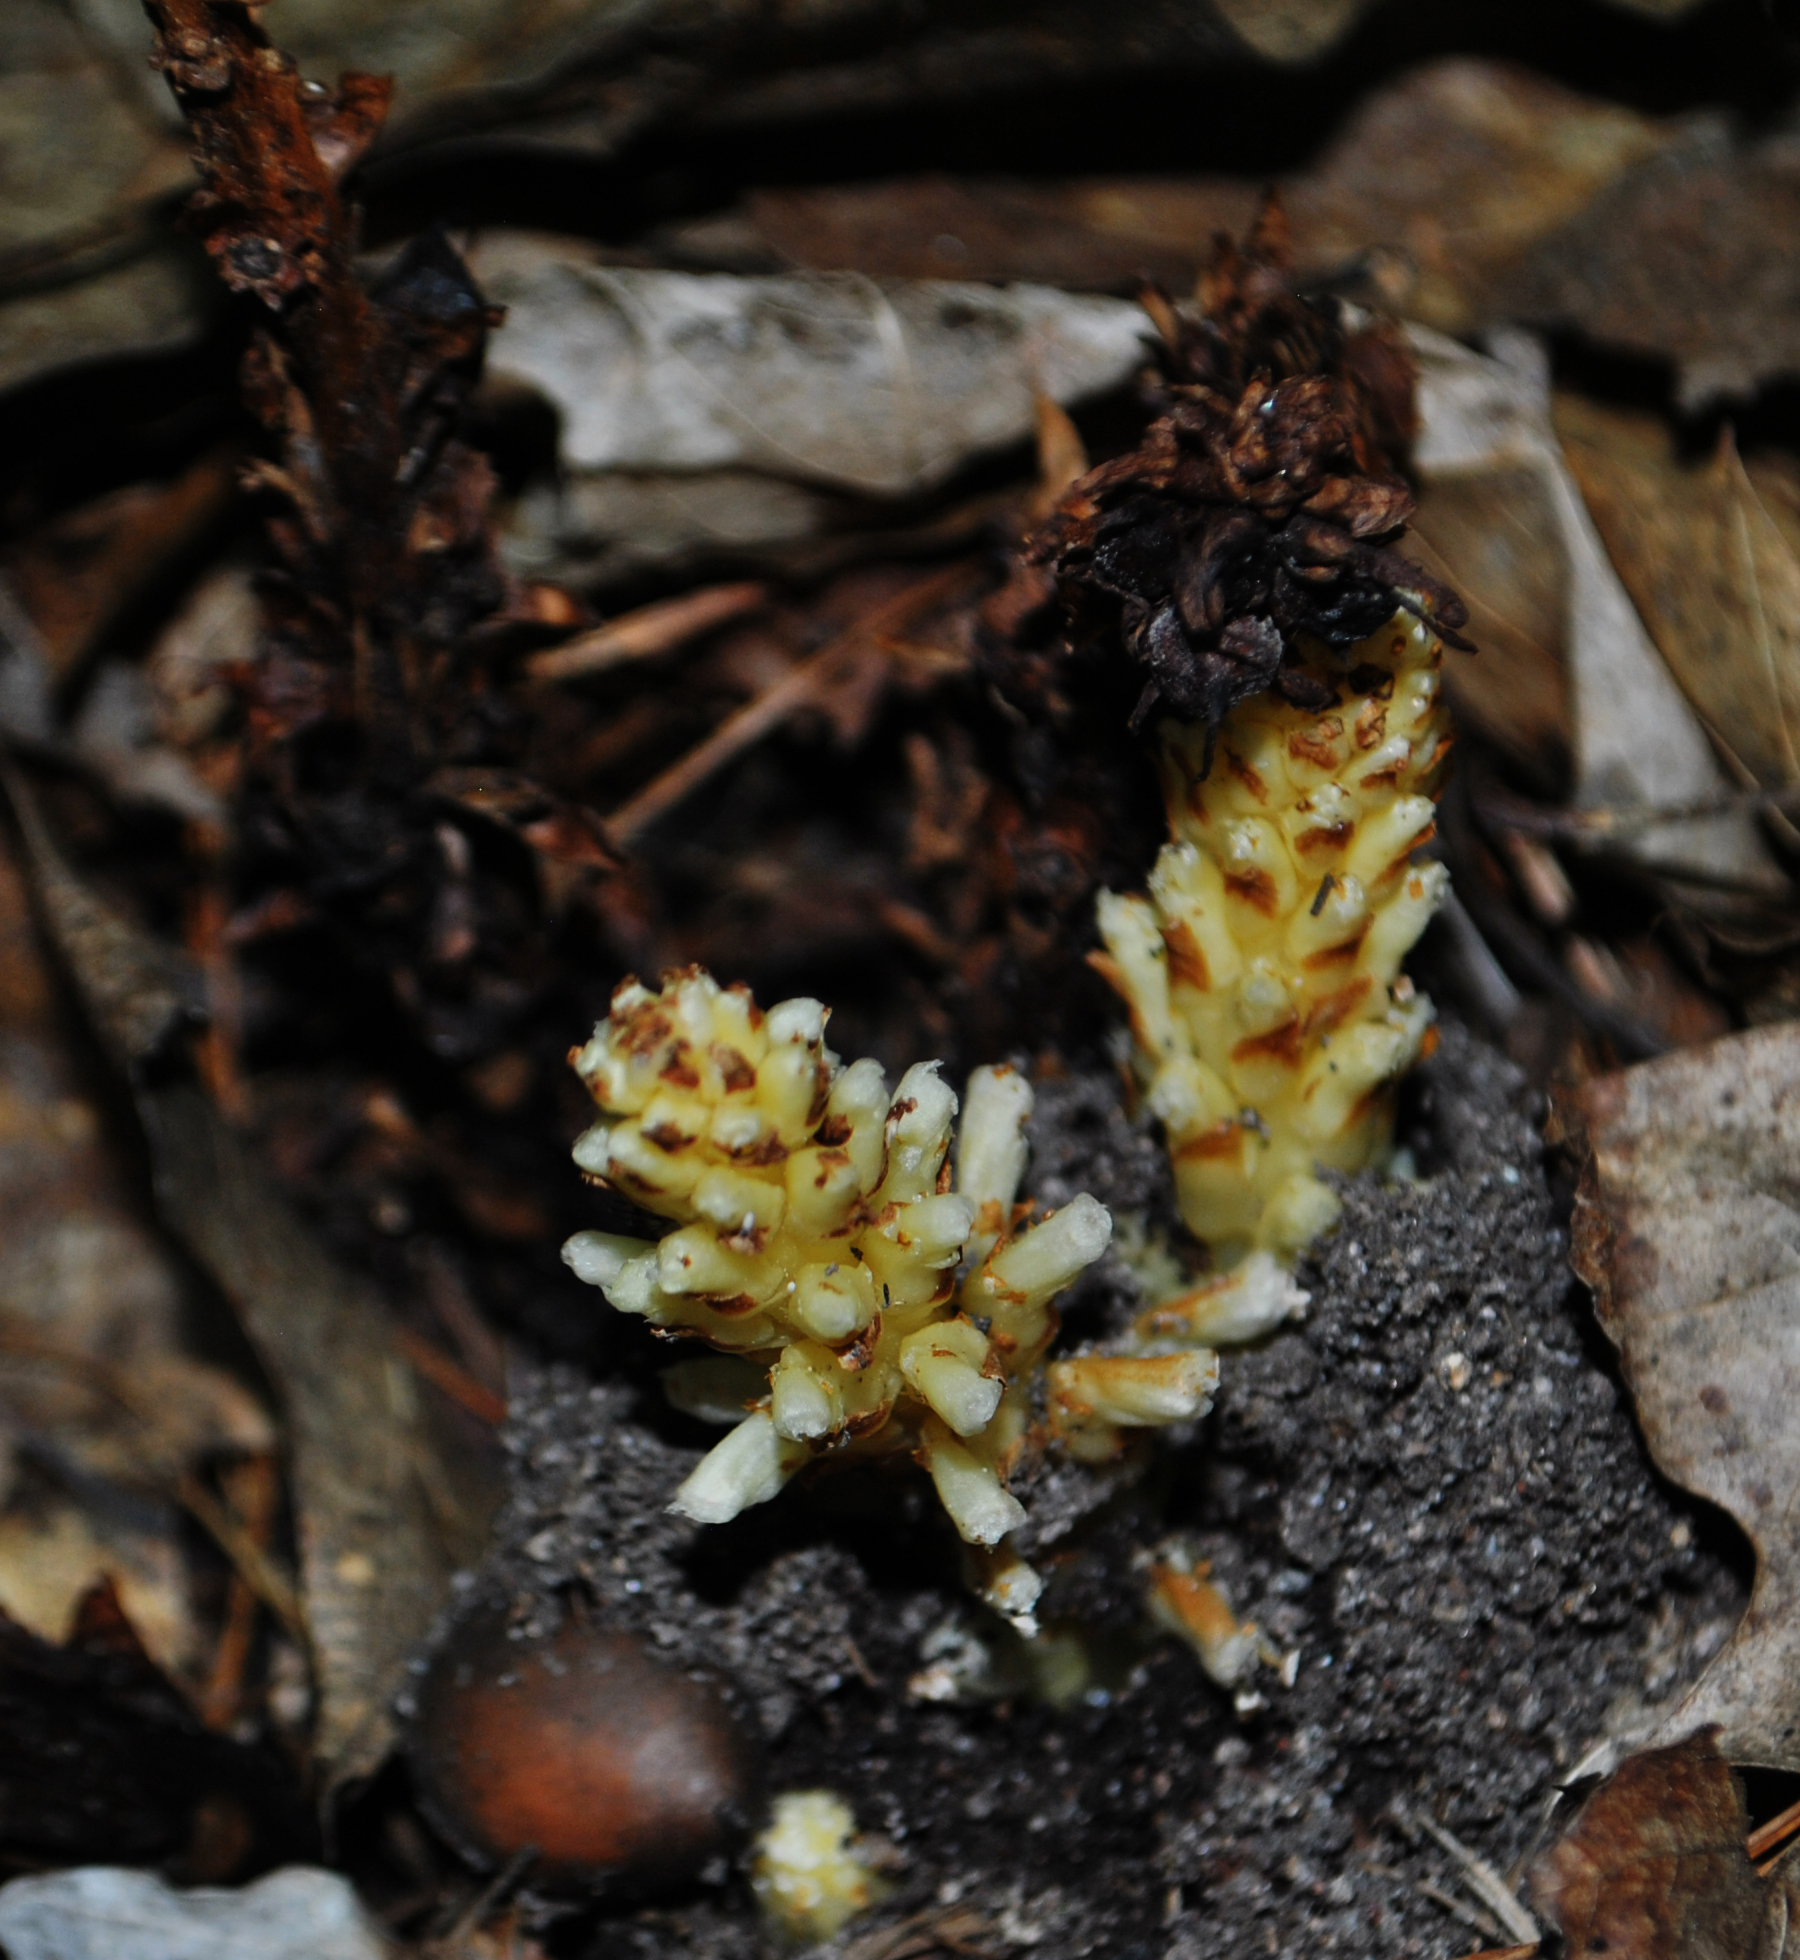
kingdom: Plantae
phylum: Tracheophyta
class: Magnoliopsida
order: Lamiales
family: Orobanchaceae
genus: Conopholis
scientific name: Conopholis americana
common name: American cancer-root
